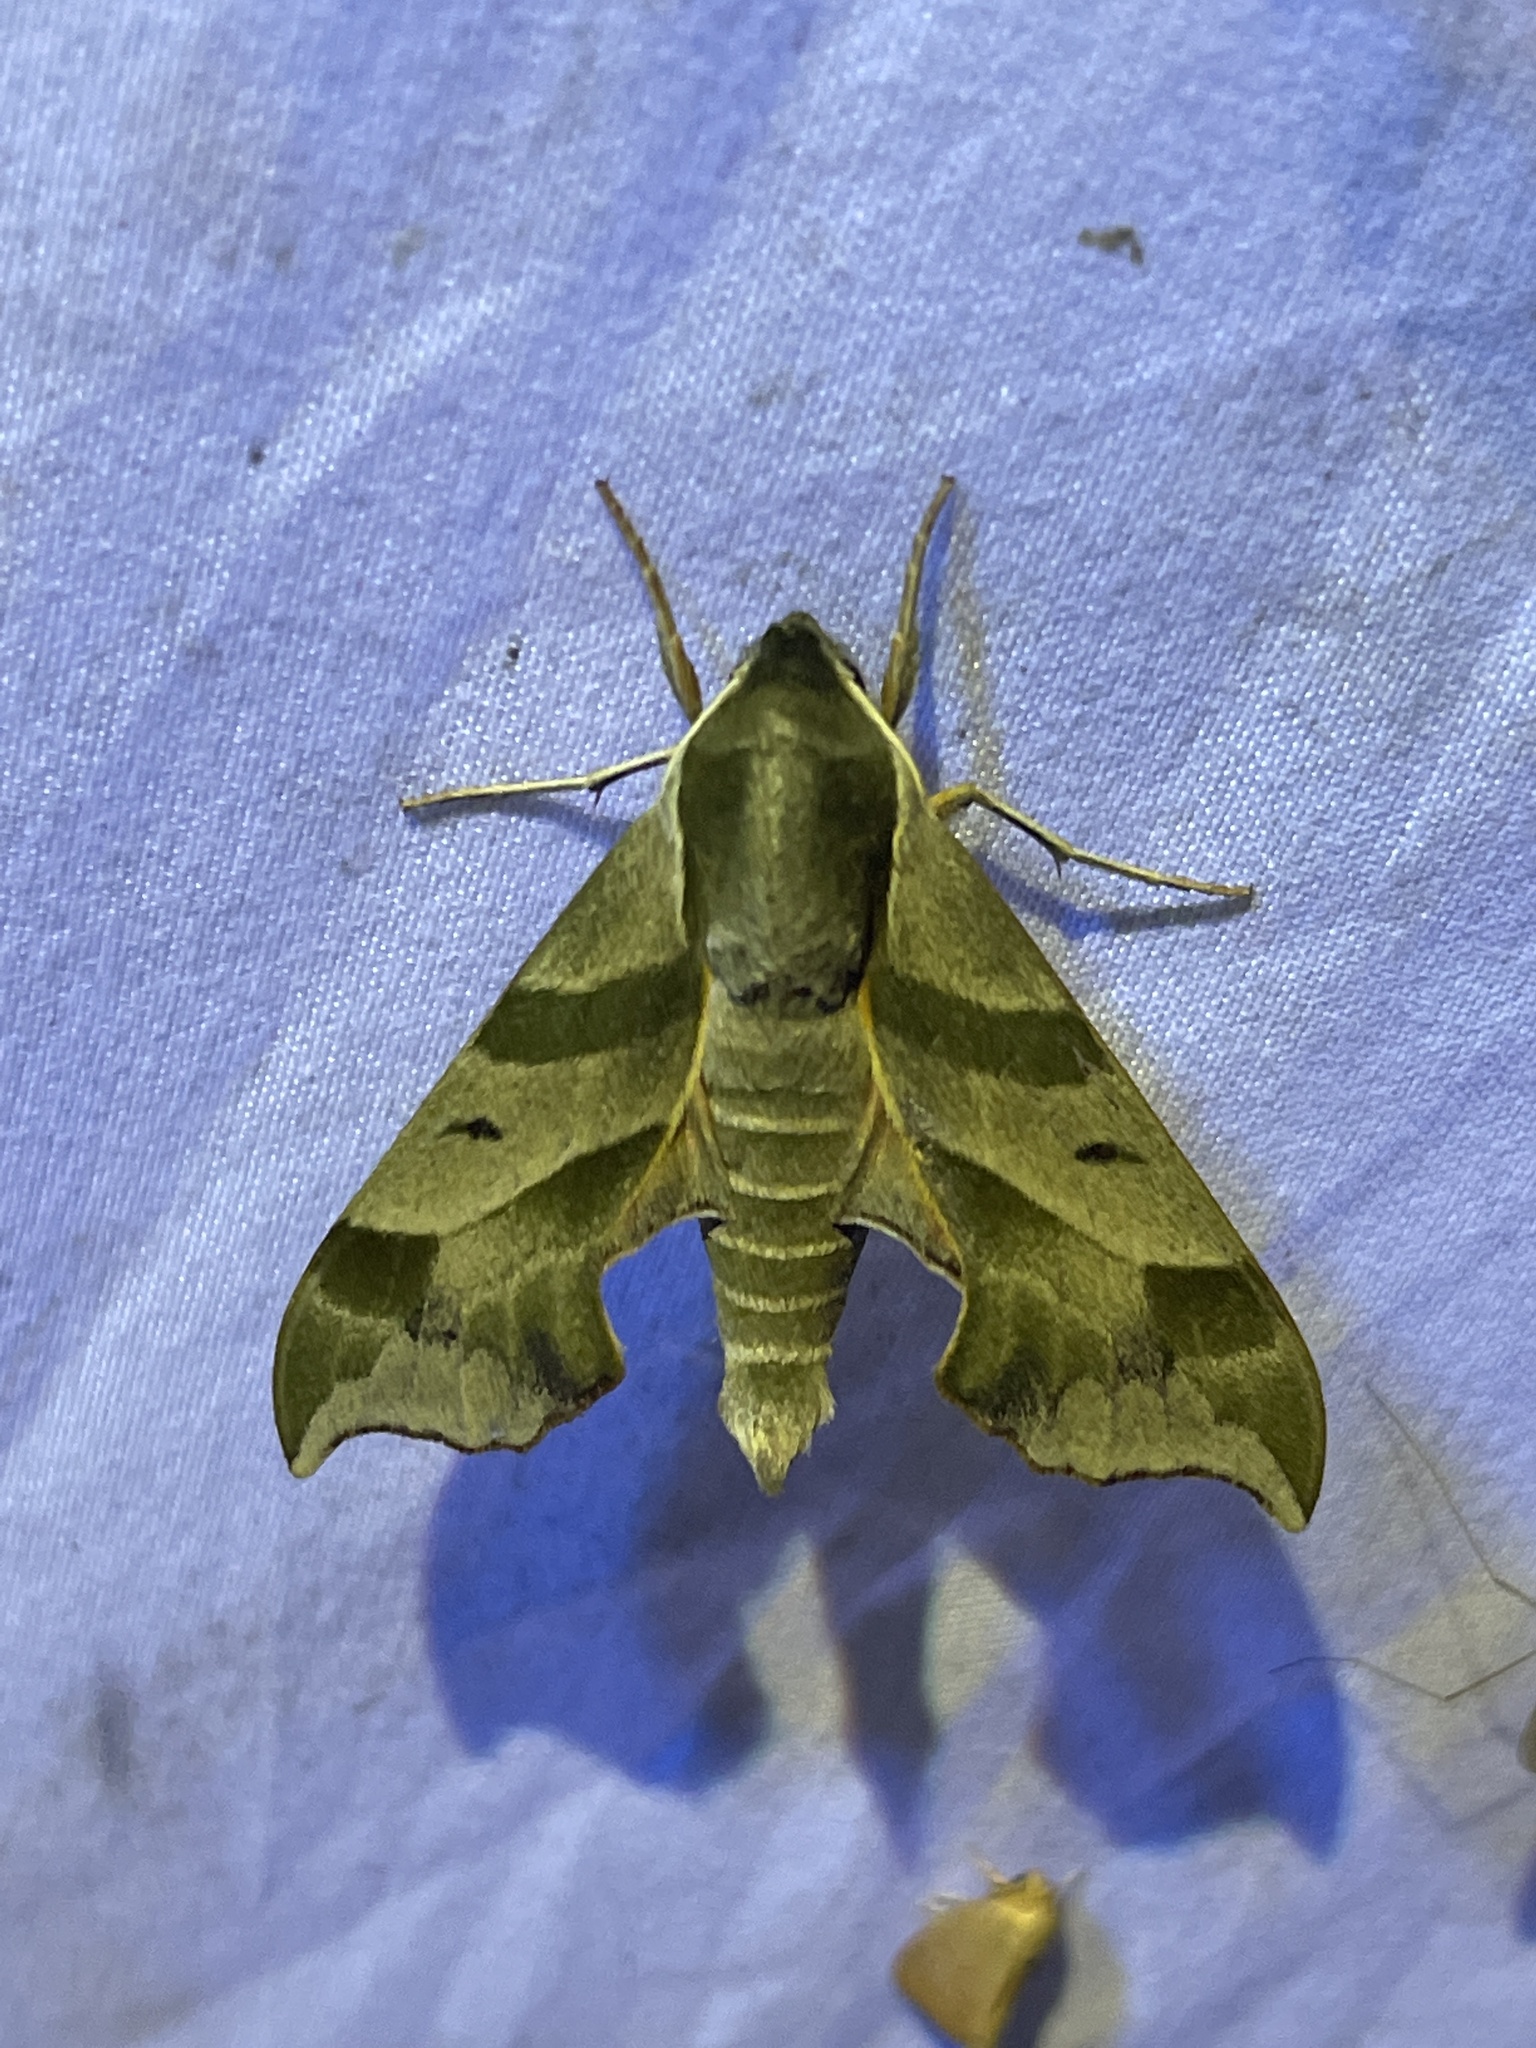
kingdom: Animalia
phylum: Arthropoda
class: Insecta
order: Lepidoptera
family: Sphingidae
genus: Darapsa
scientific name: Darapsa myron
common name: Hog sphinx
